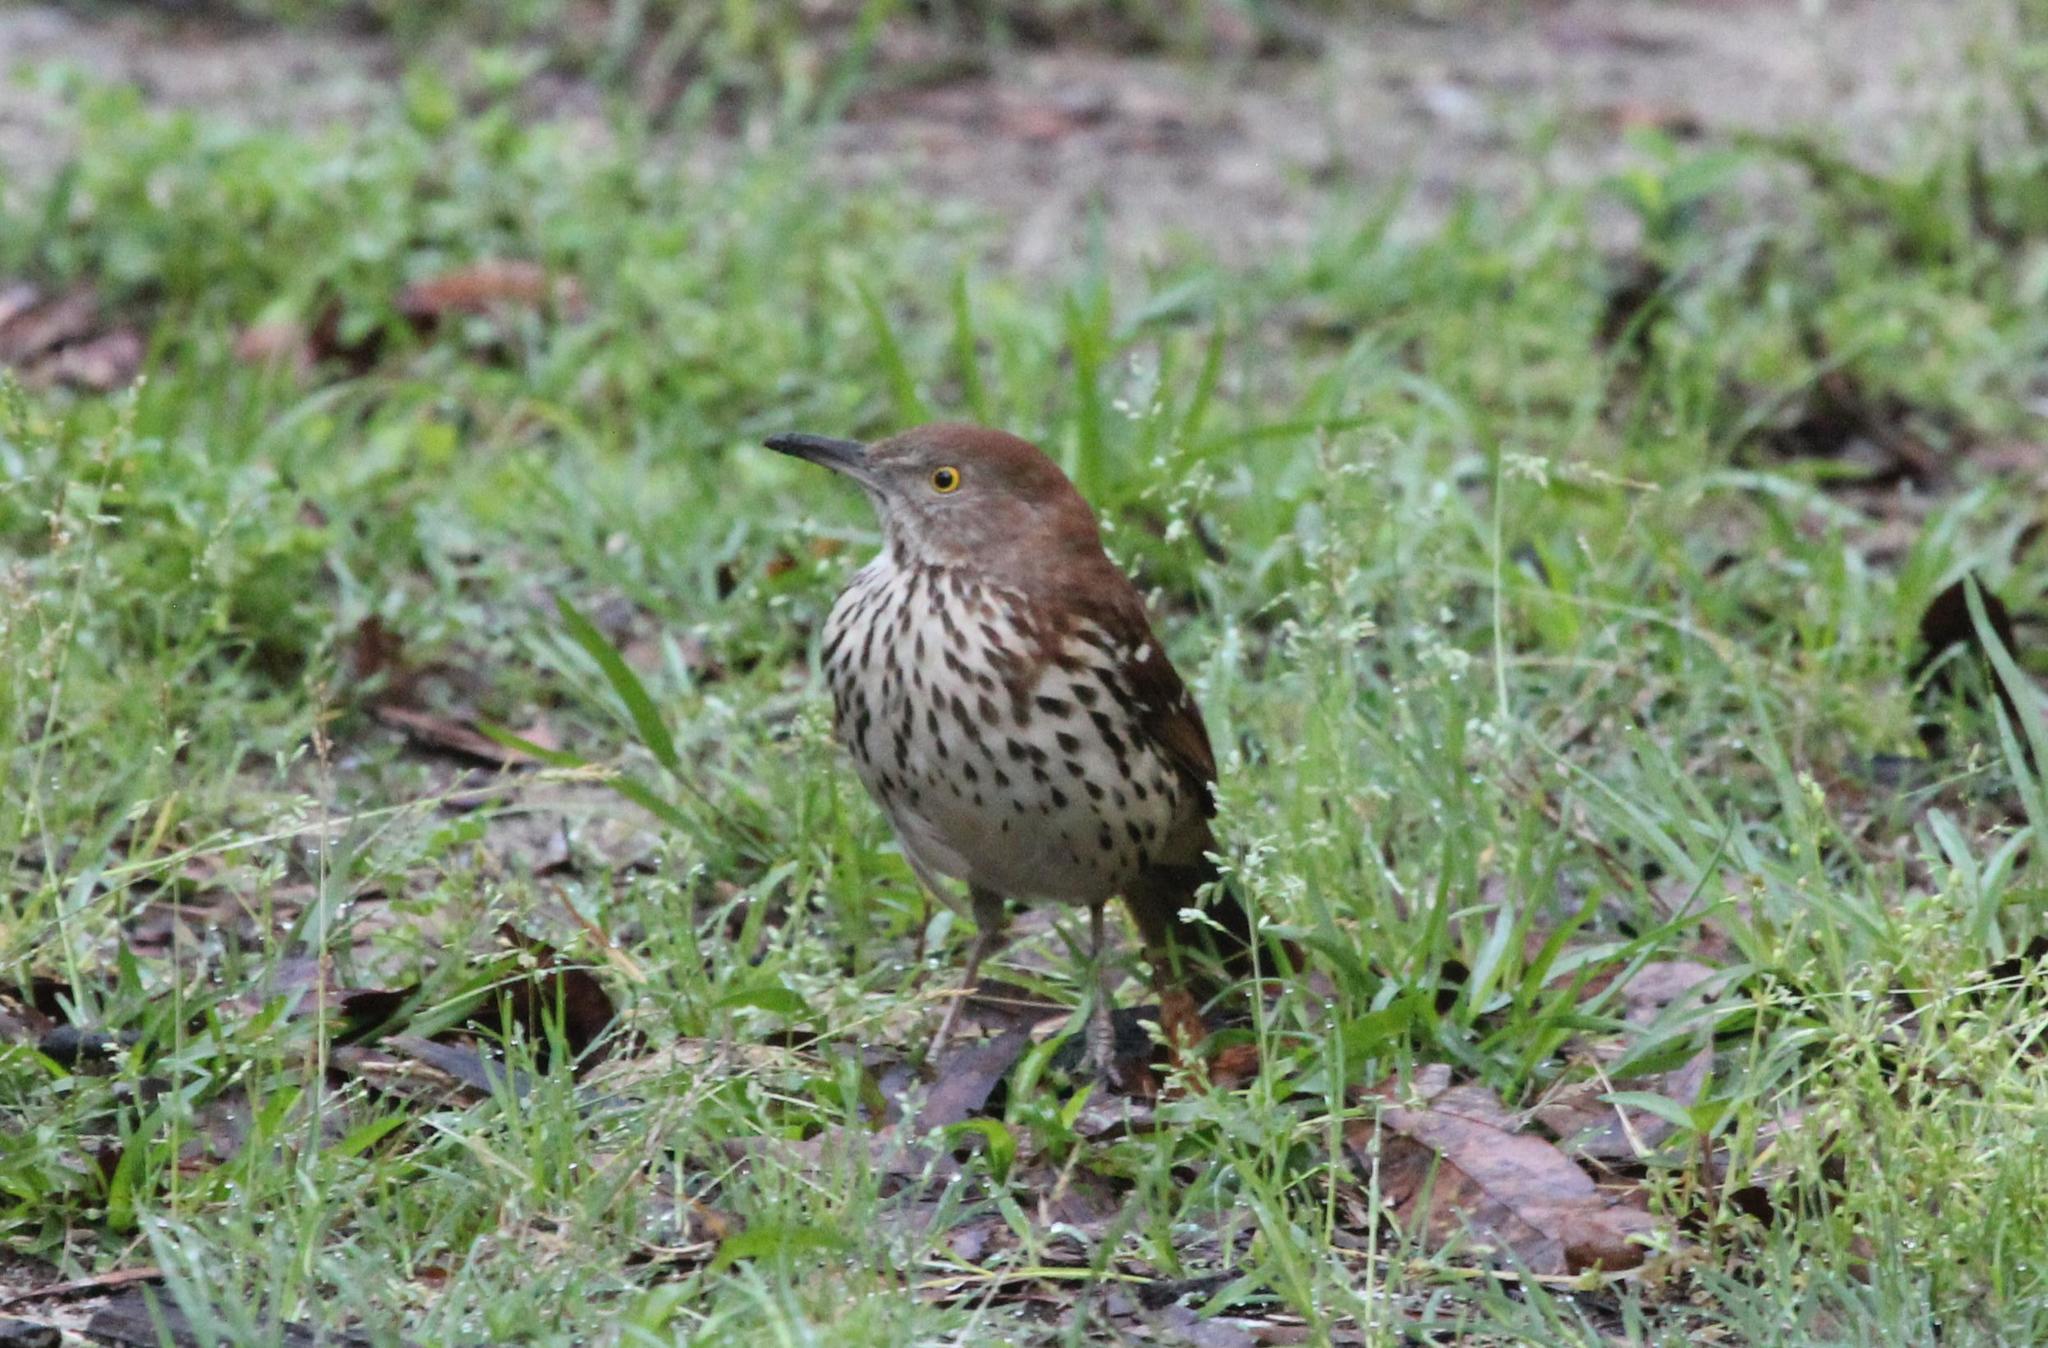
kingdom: Animalia
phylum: Chordata
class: Aves
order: Passeriformes
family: Mimidae
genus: Toxostoma
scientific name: Toxostoma rufum
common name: Brown thrasher
